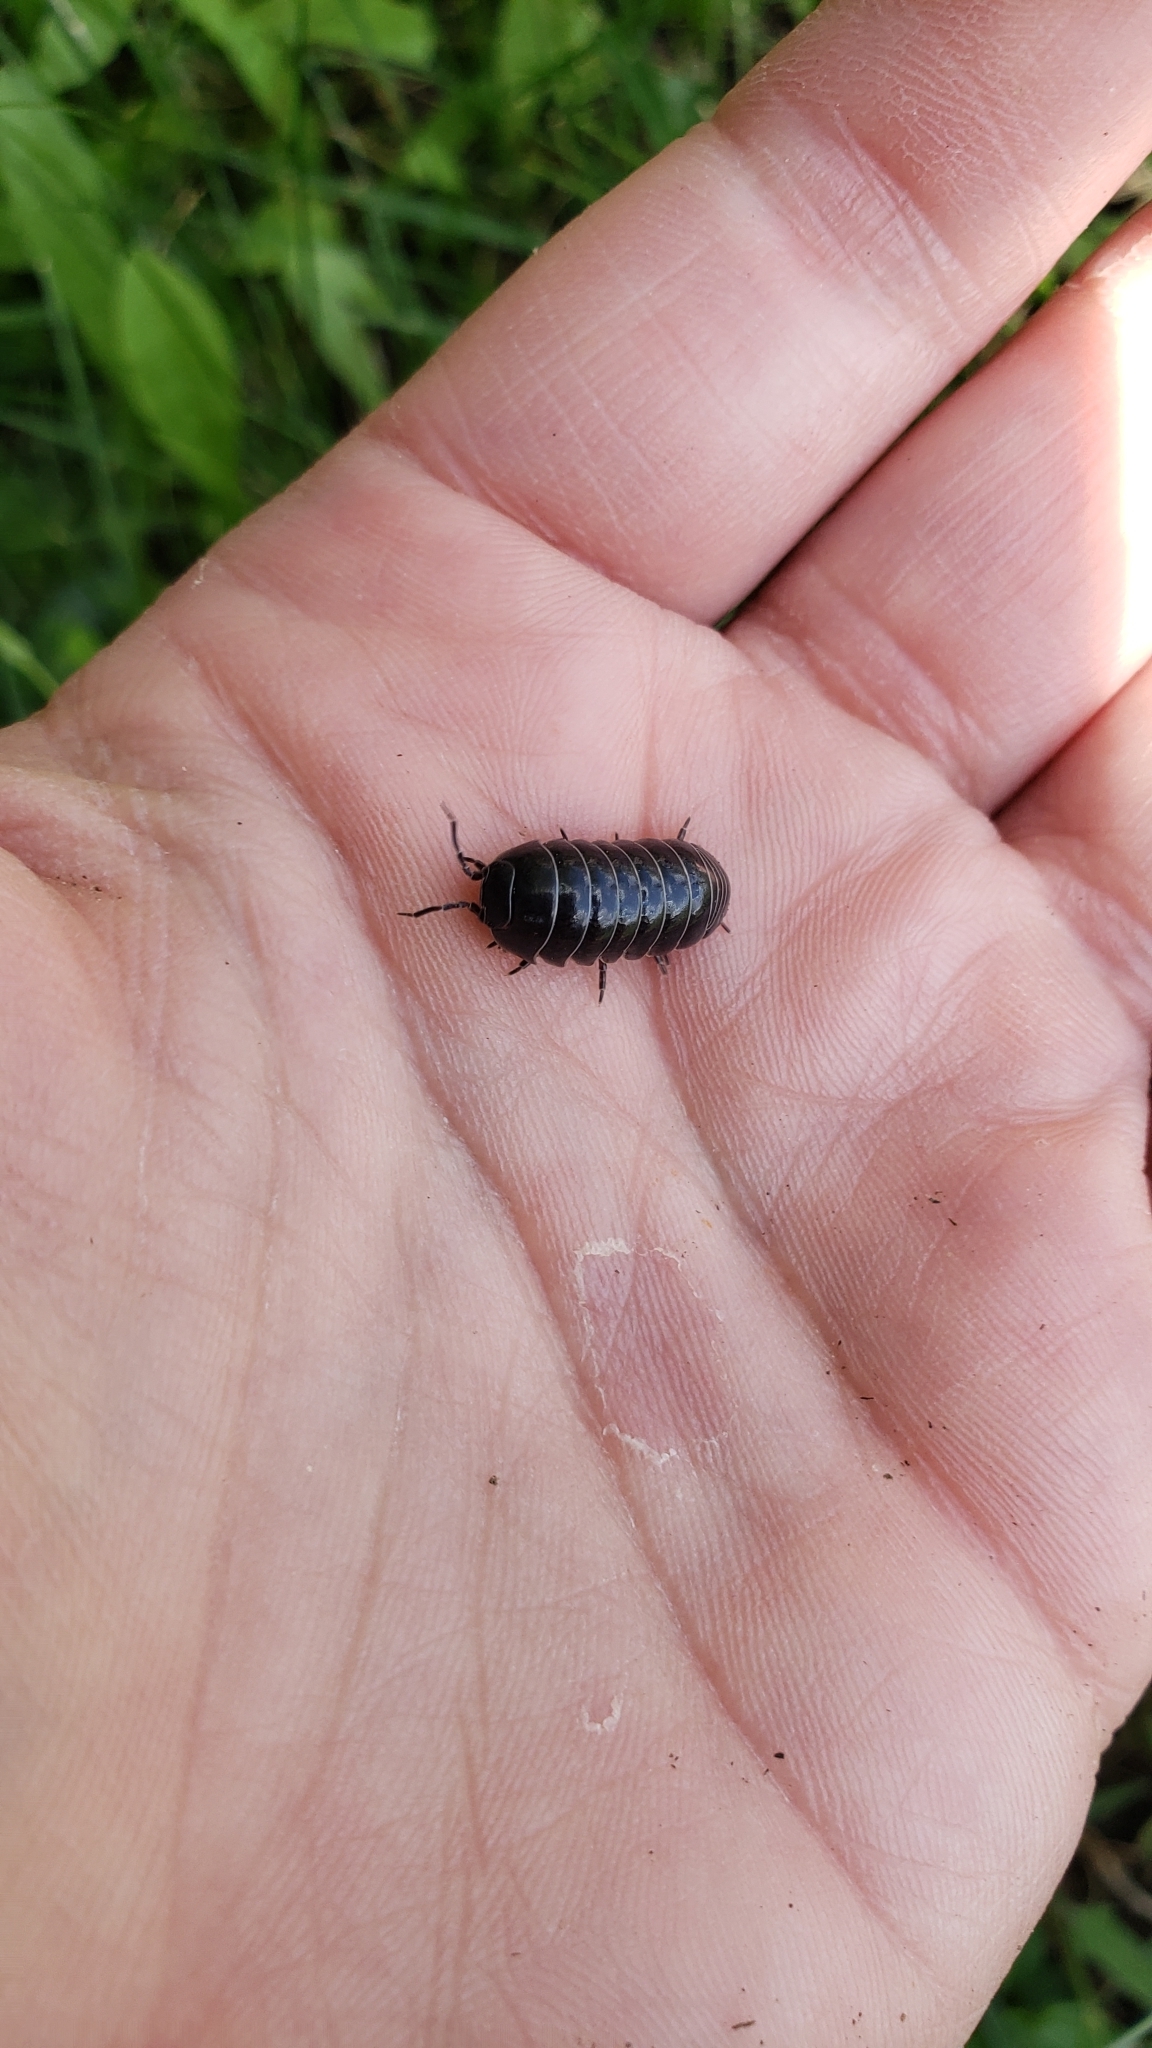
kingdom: Animalia
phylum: Arthropoda
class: Malacostraca
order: Isopoda
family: Armadillidiidae
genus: Armadillidium
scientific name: Armadillidium vulgare
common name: Common pill woodlouse
